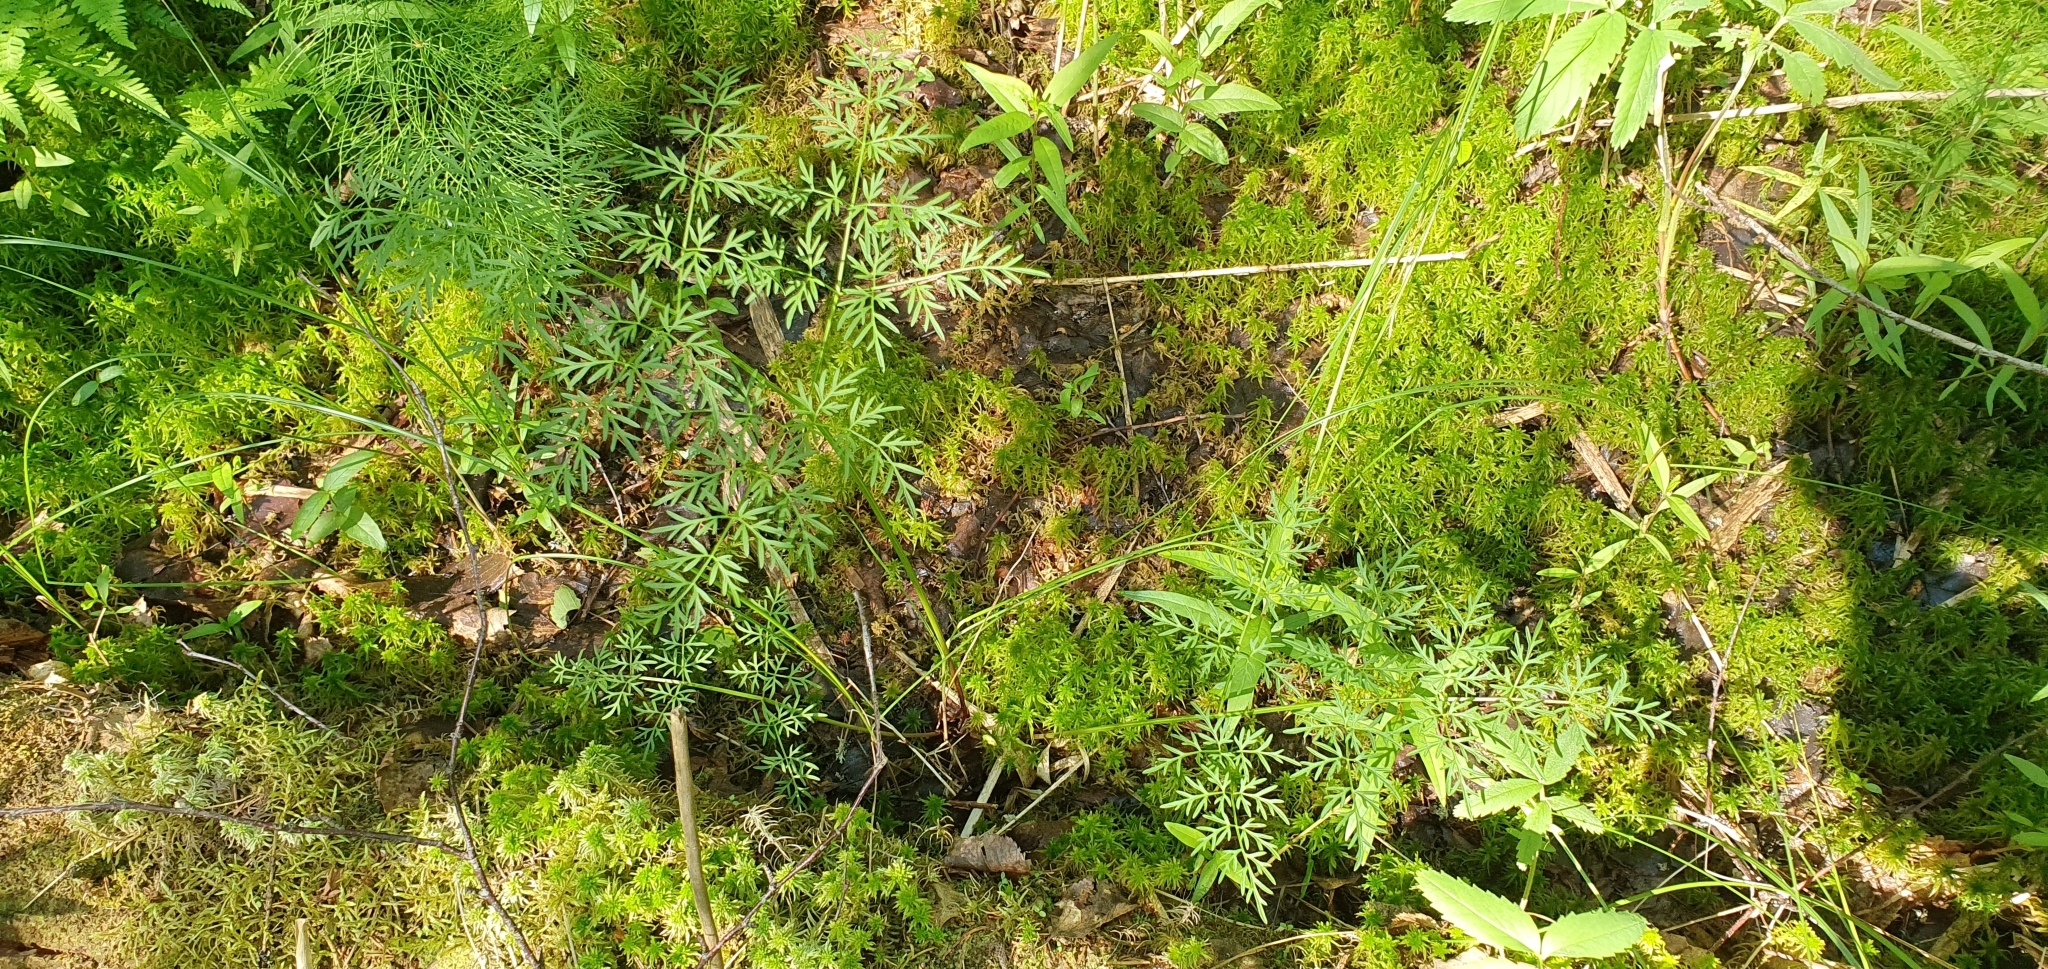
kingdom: Plantae
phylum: Tracheophyta
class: Magnoliopsida
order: Apiales
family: Apiaceae
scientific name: Apiaceae
